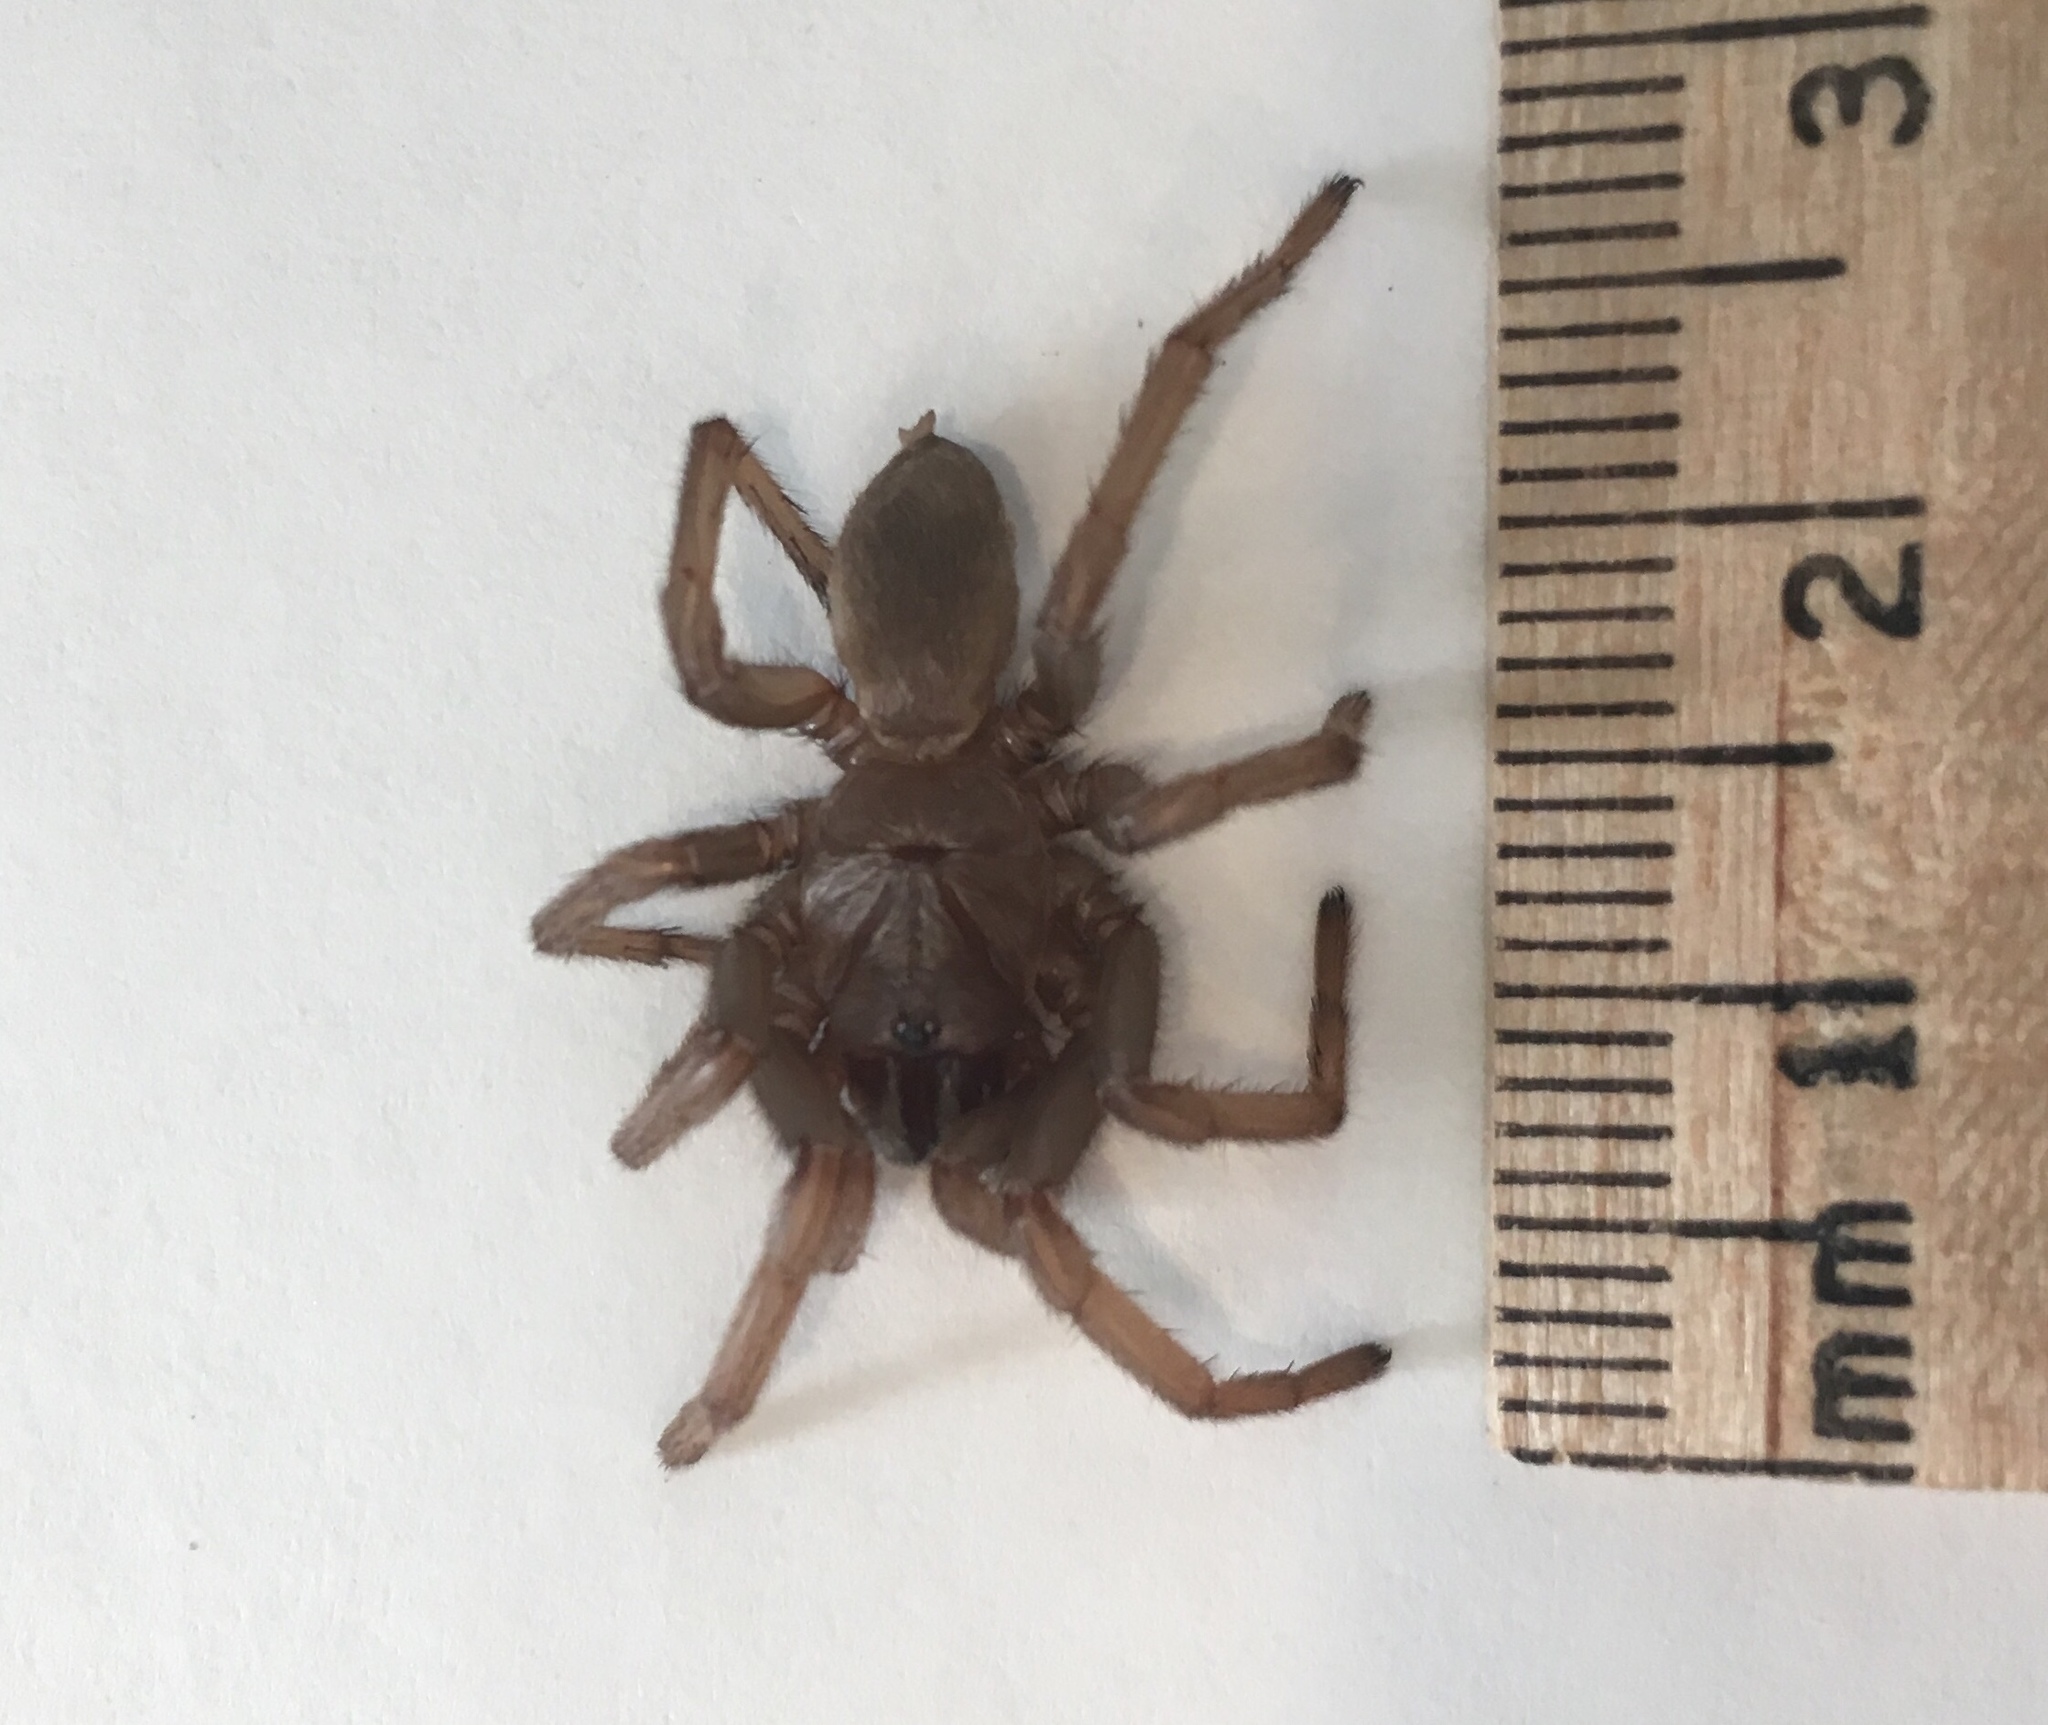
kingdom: Animalia
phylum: Arthropoda
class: Arachnida
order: Araneae
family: Nemesiidae
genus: Calisoga
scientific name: Calisoga longitarsis
